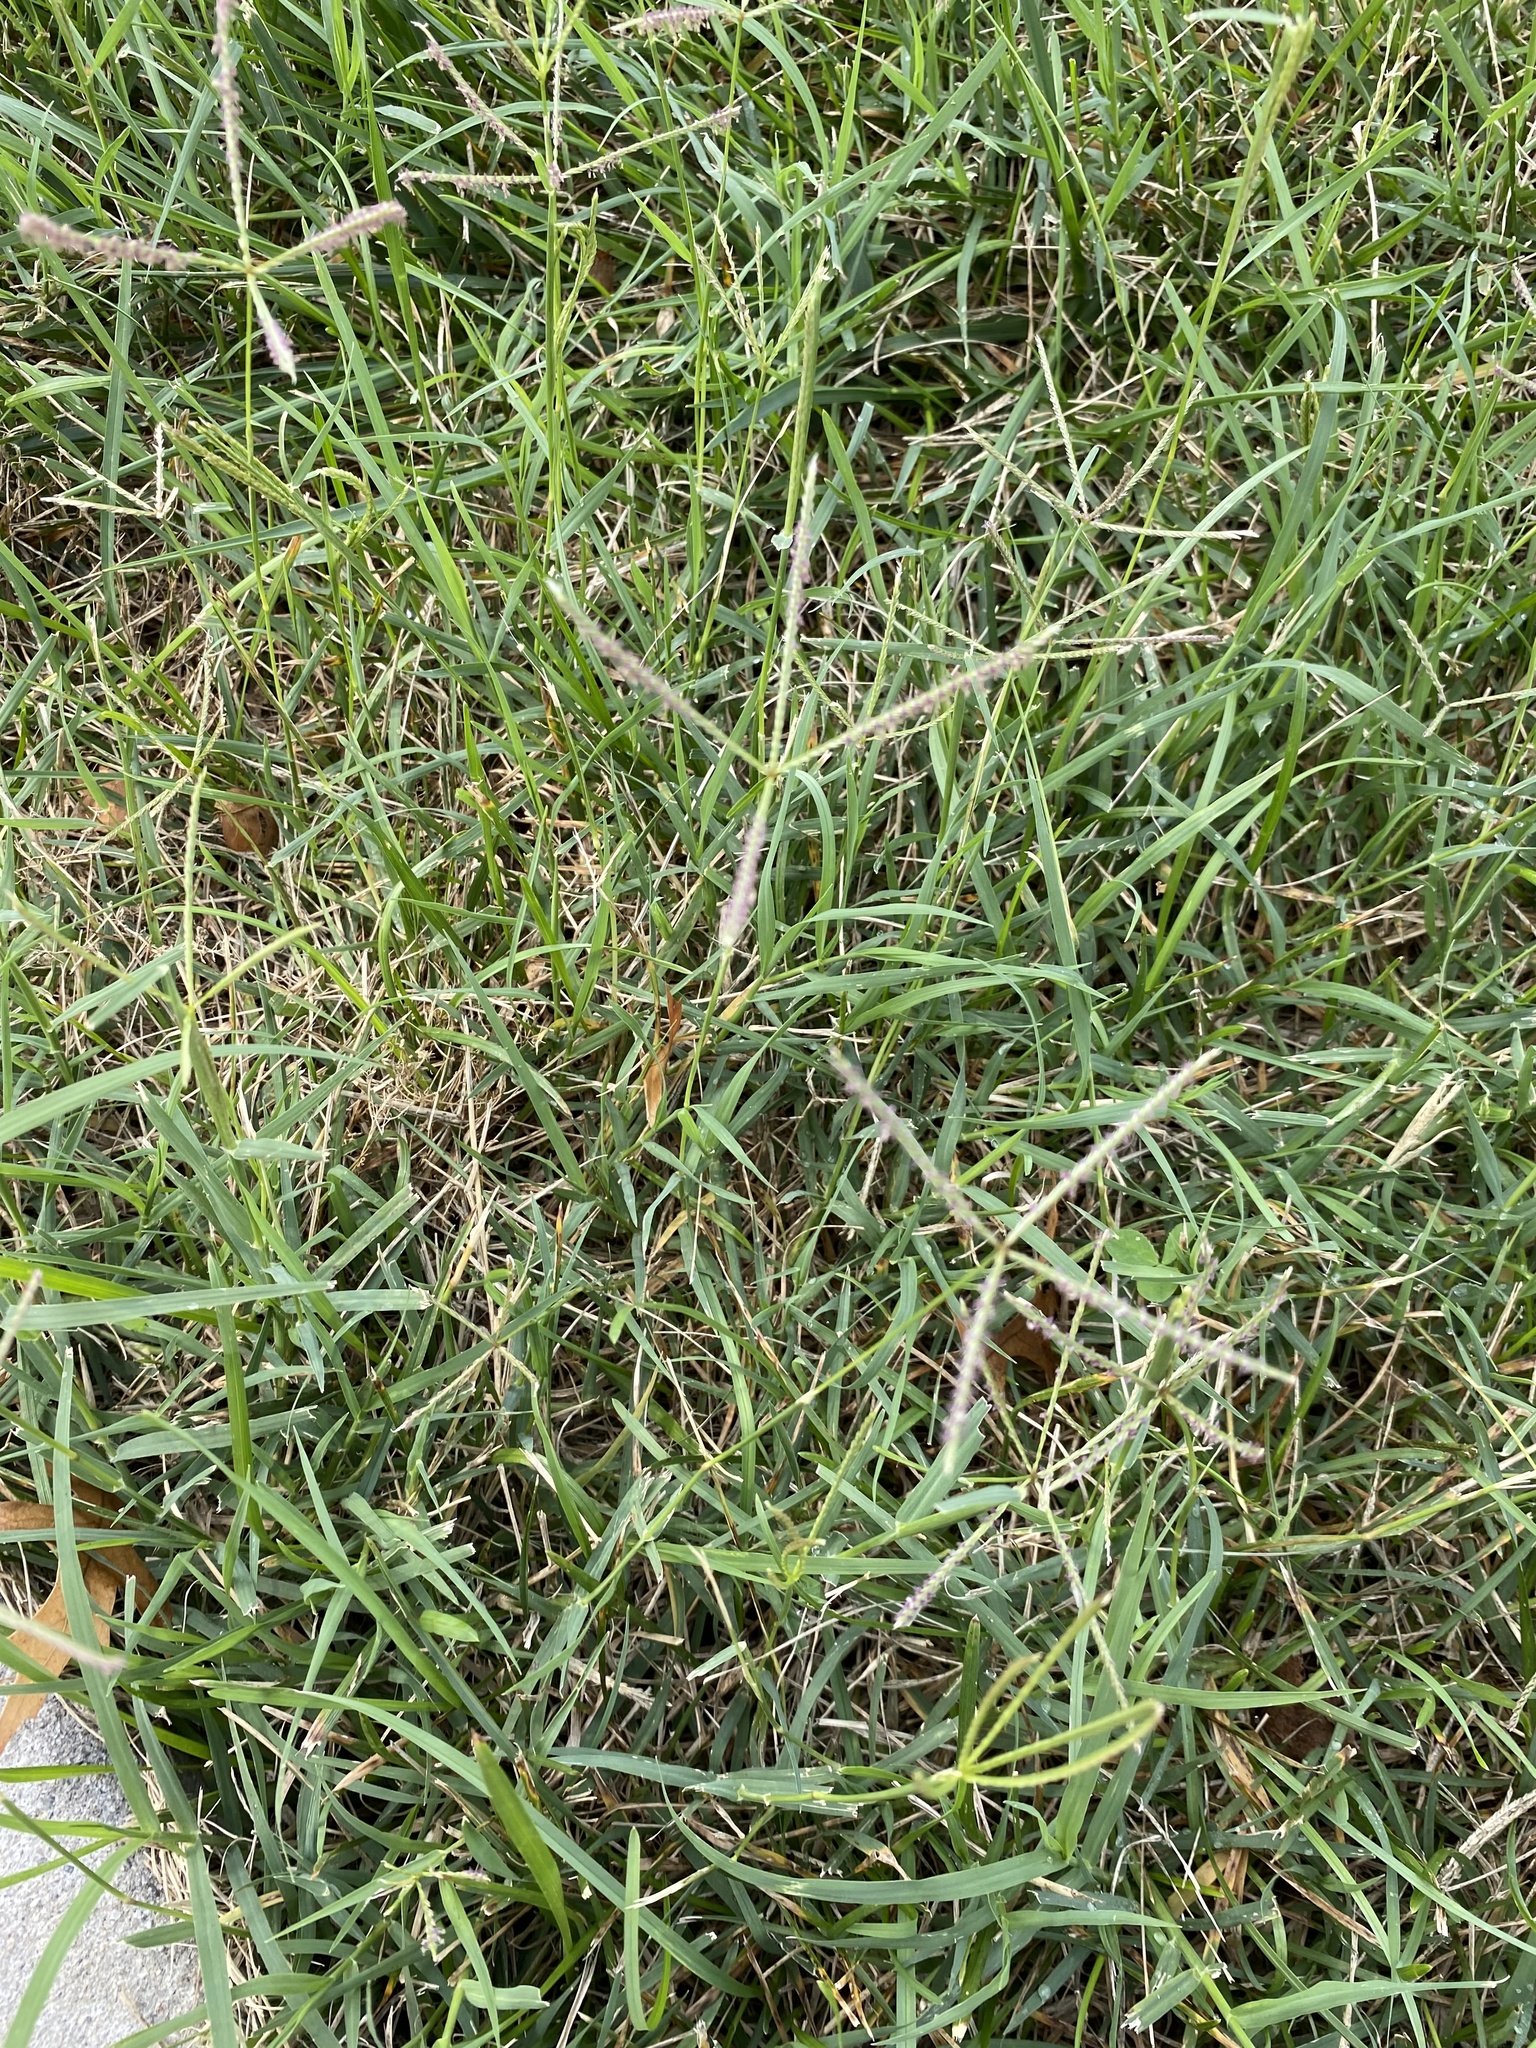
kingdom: Plantae
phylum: Tracheophyta
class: Liliopsida
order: Poales
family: Poaceae
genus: Cynodon
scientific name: Cynodon dactylon
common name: Bermuda grass
